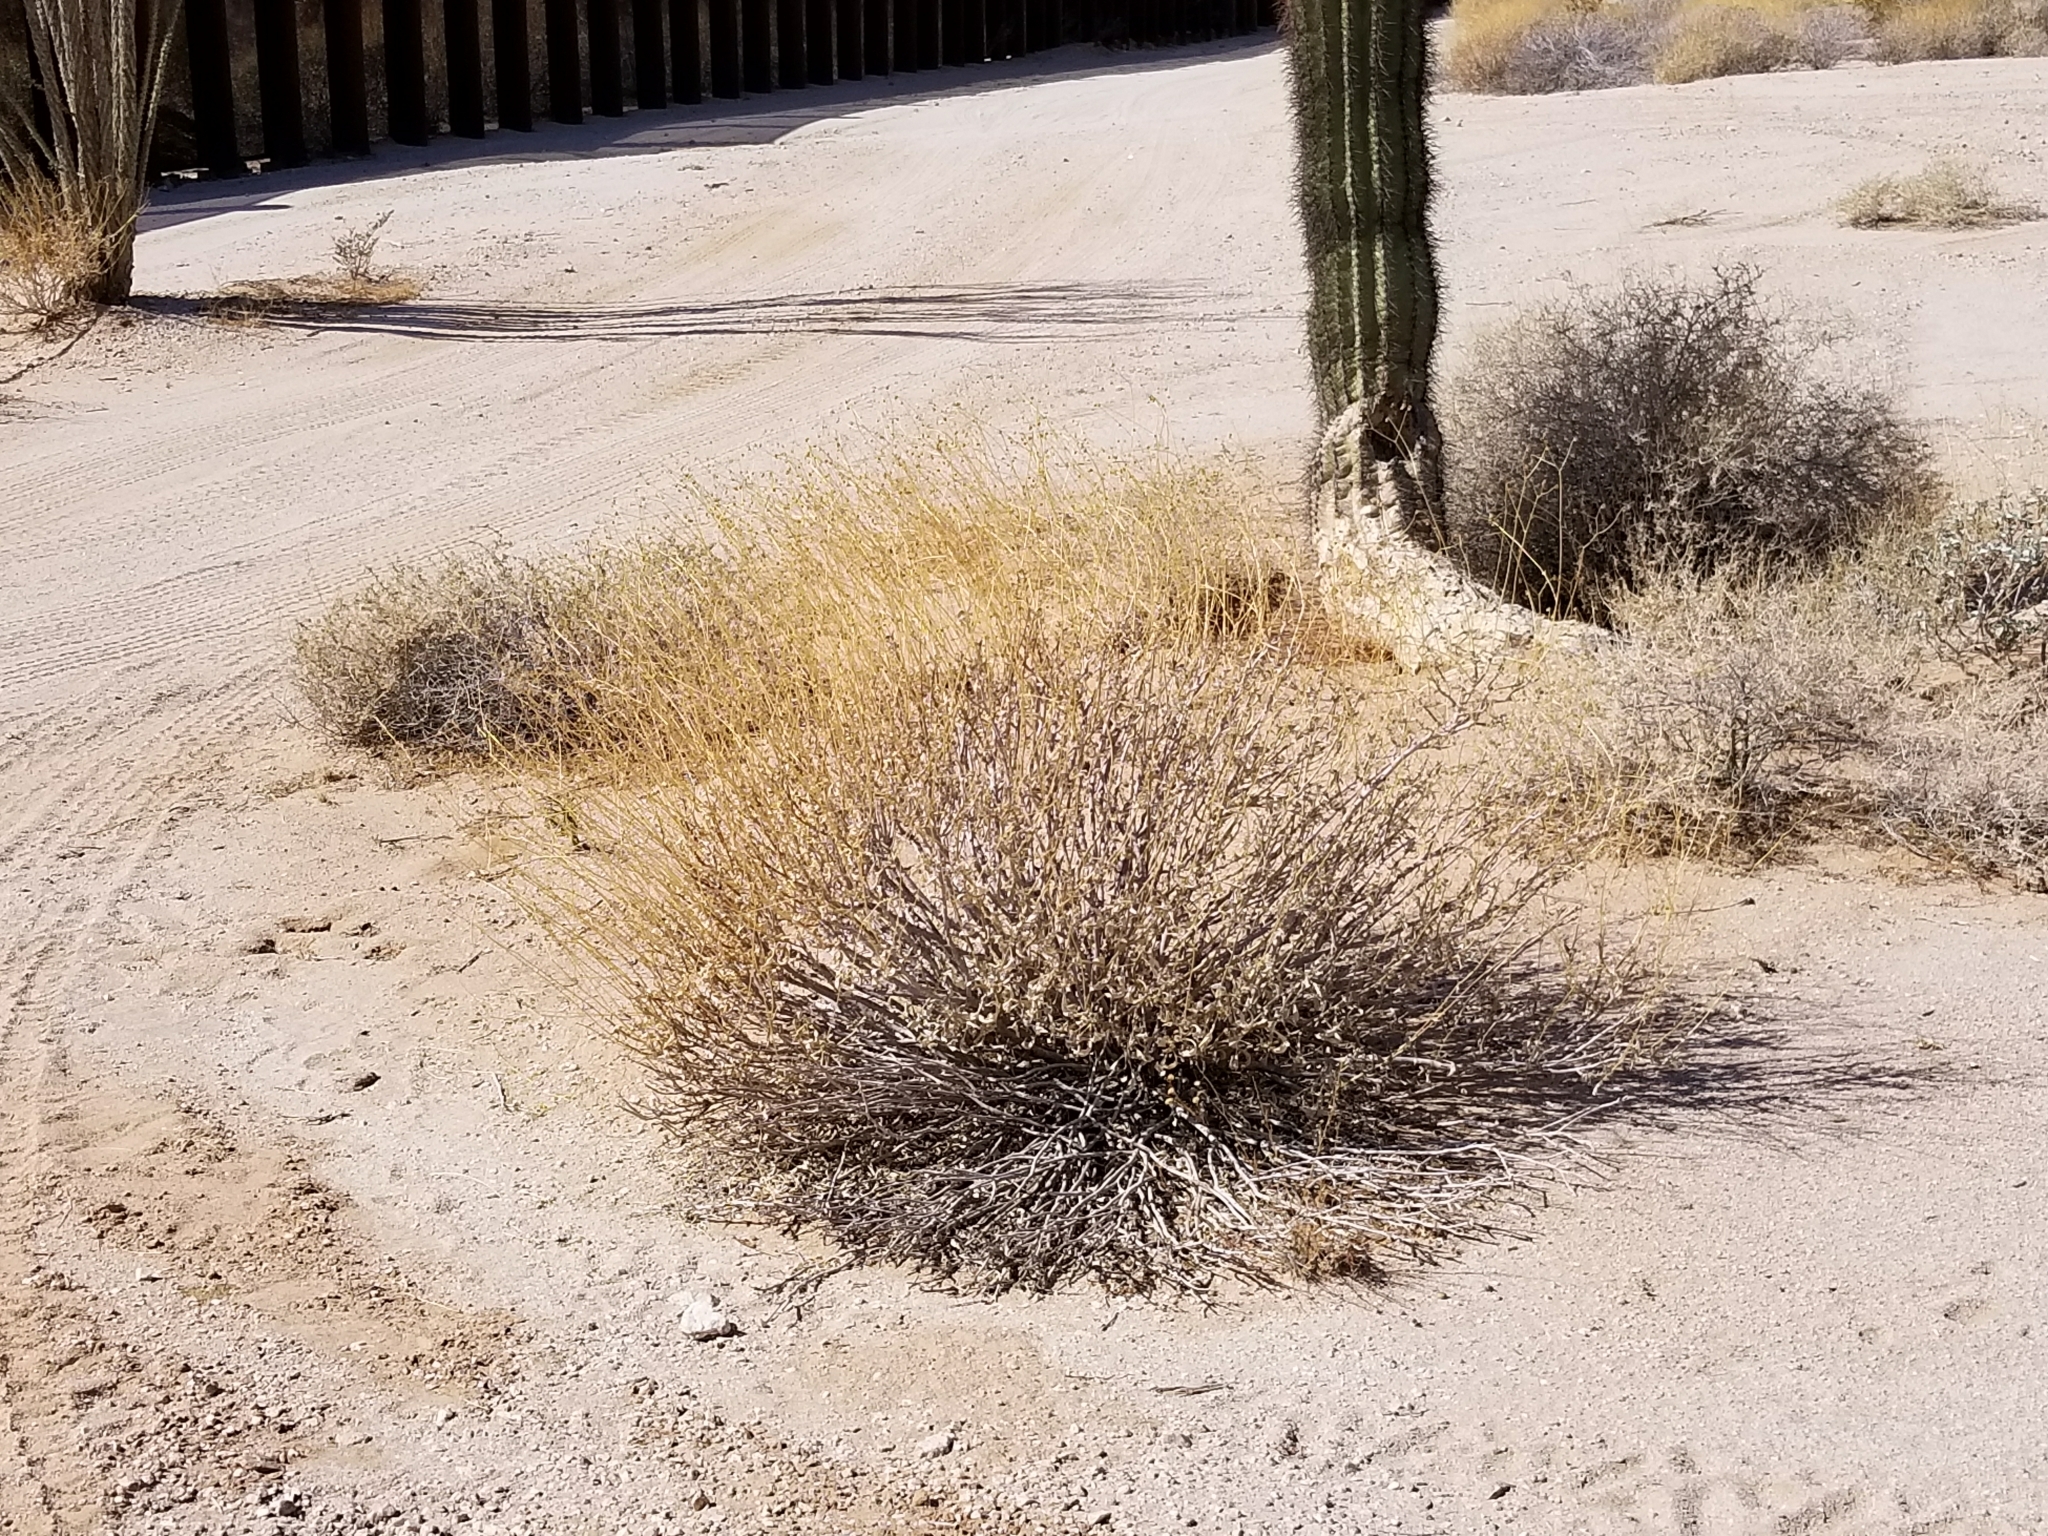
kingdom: Plantae
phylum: Tracheophyta
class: Magnoliopsida
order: Asterales
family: Asteraceae
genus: Encelia
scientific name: Encelia farinosa
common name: Brittlebush
